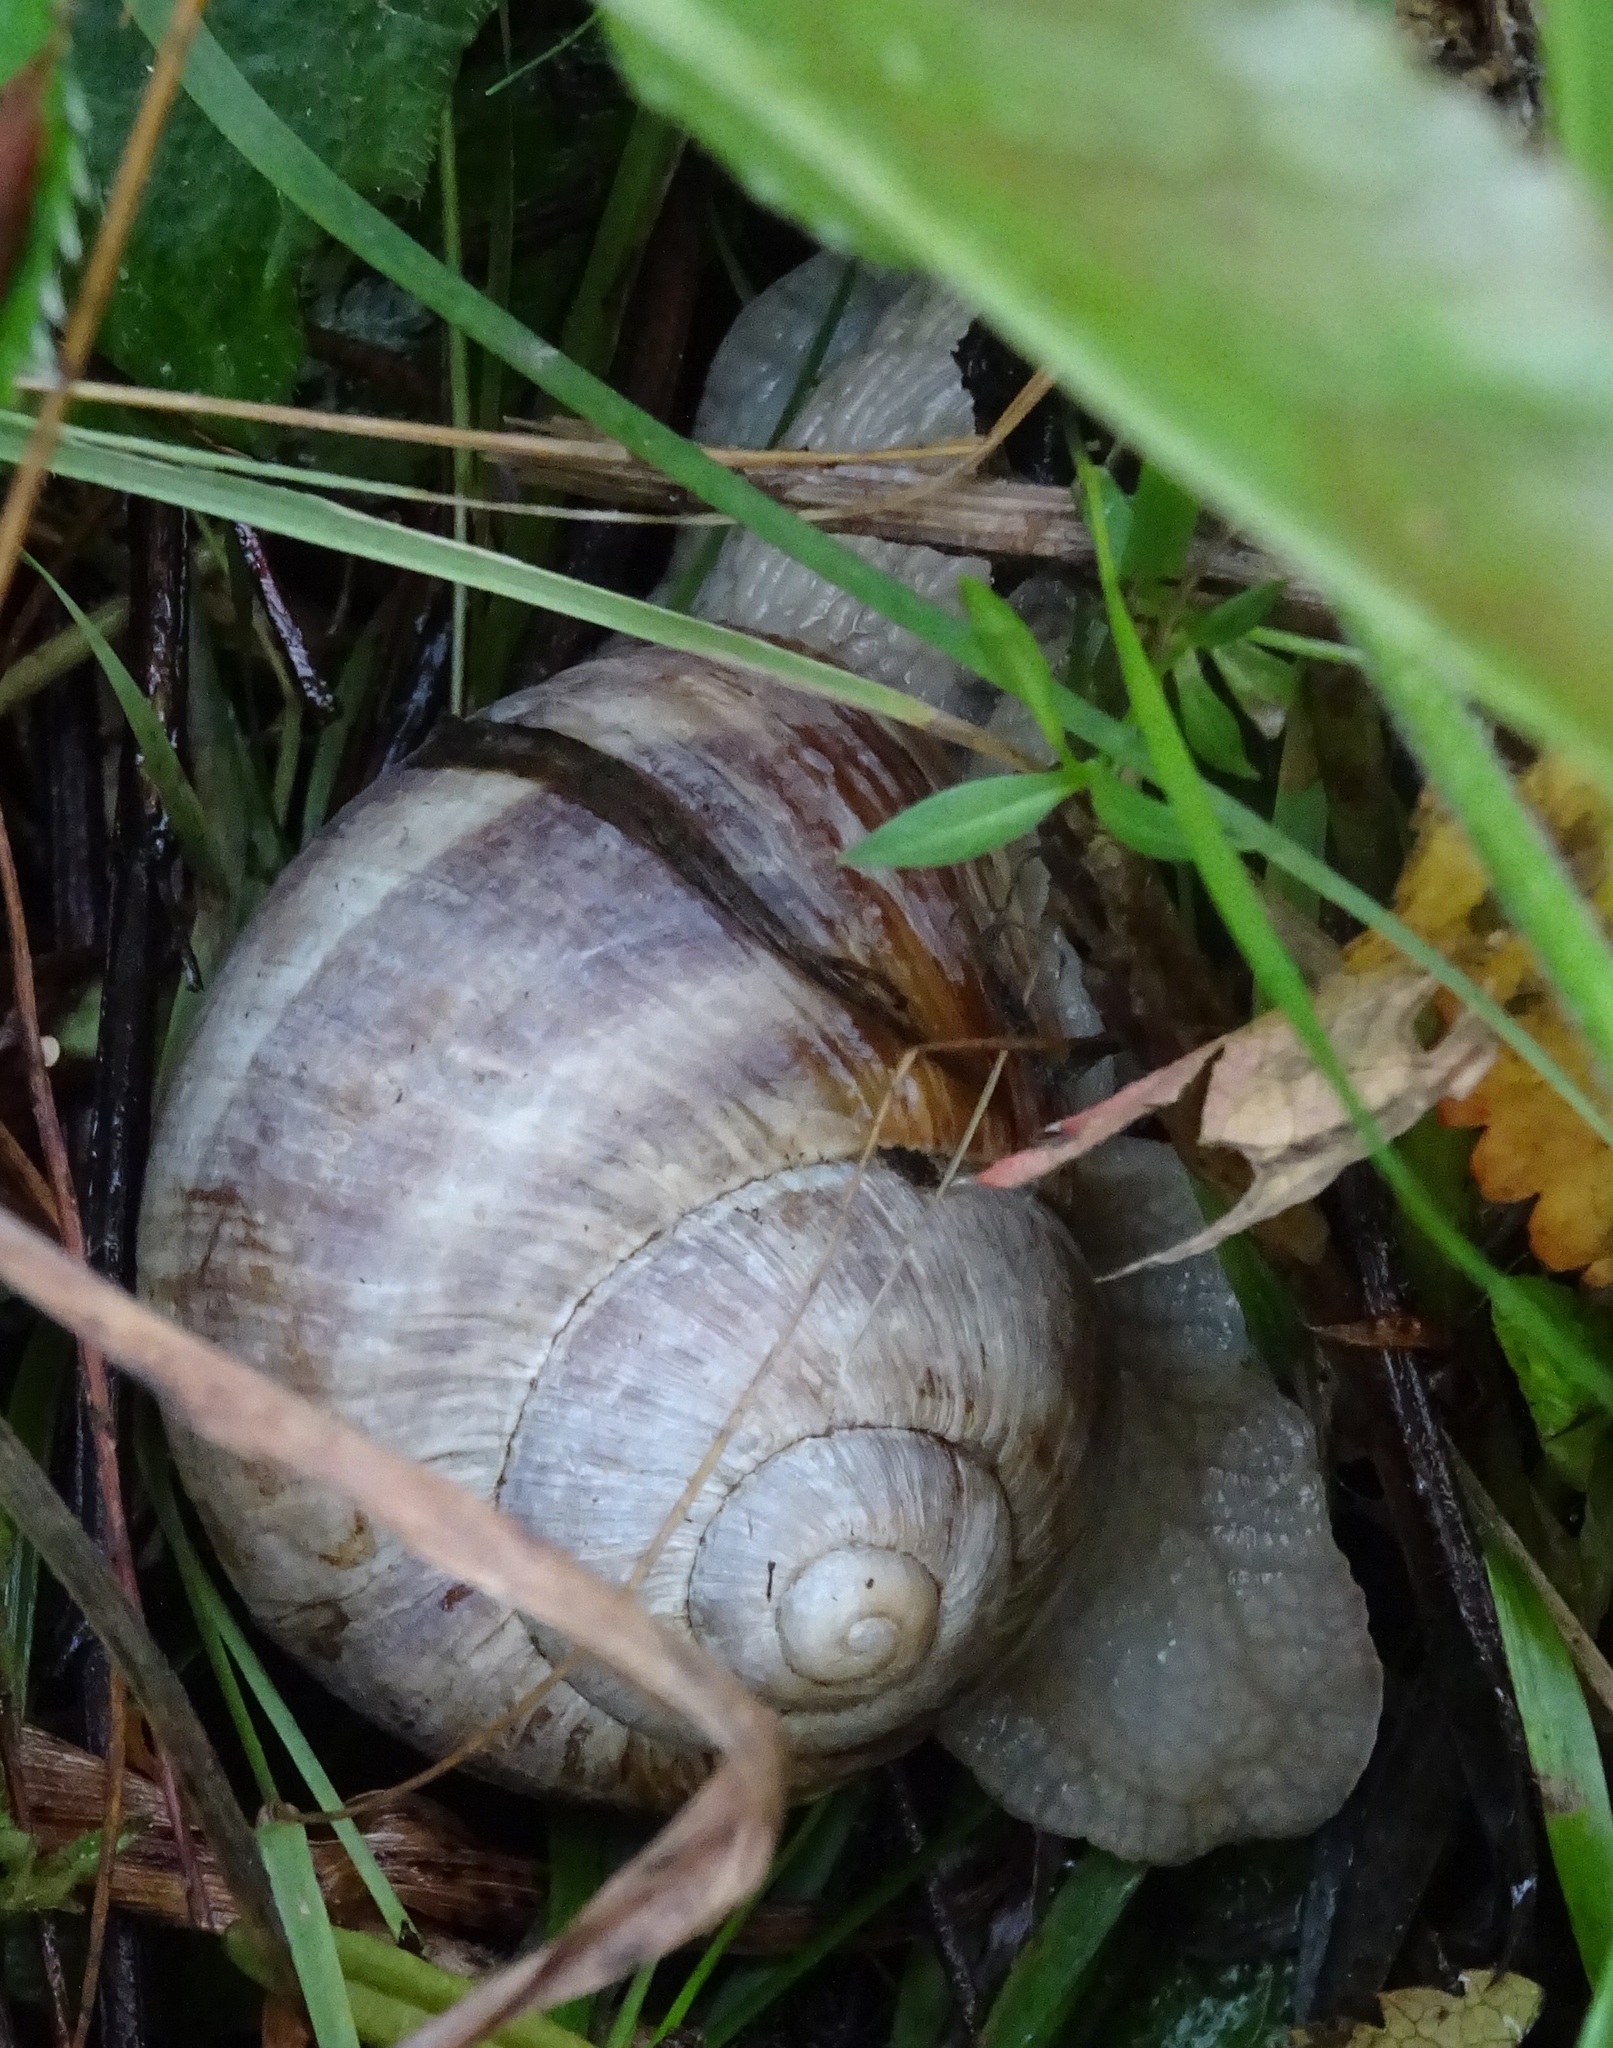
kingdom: Animalia
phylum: Mollusca
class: Gastropoda
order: Stylommatophora
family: Helicidae
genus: Helix
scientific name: Helix pomatia
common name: Roman snail
